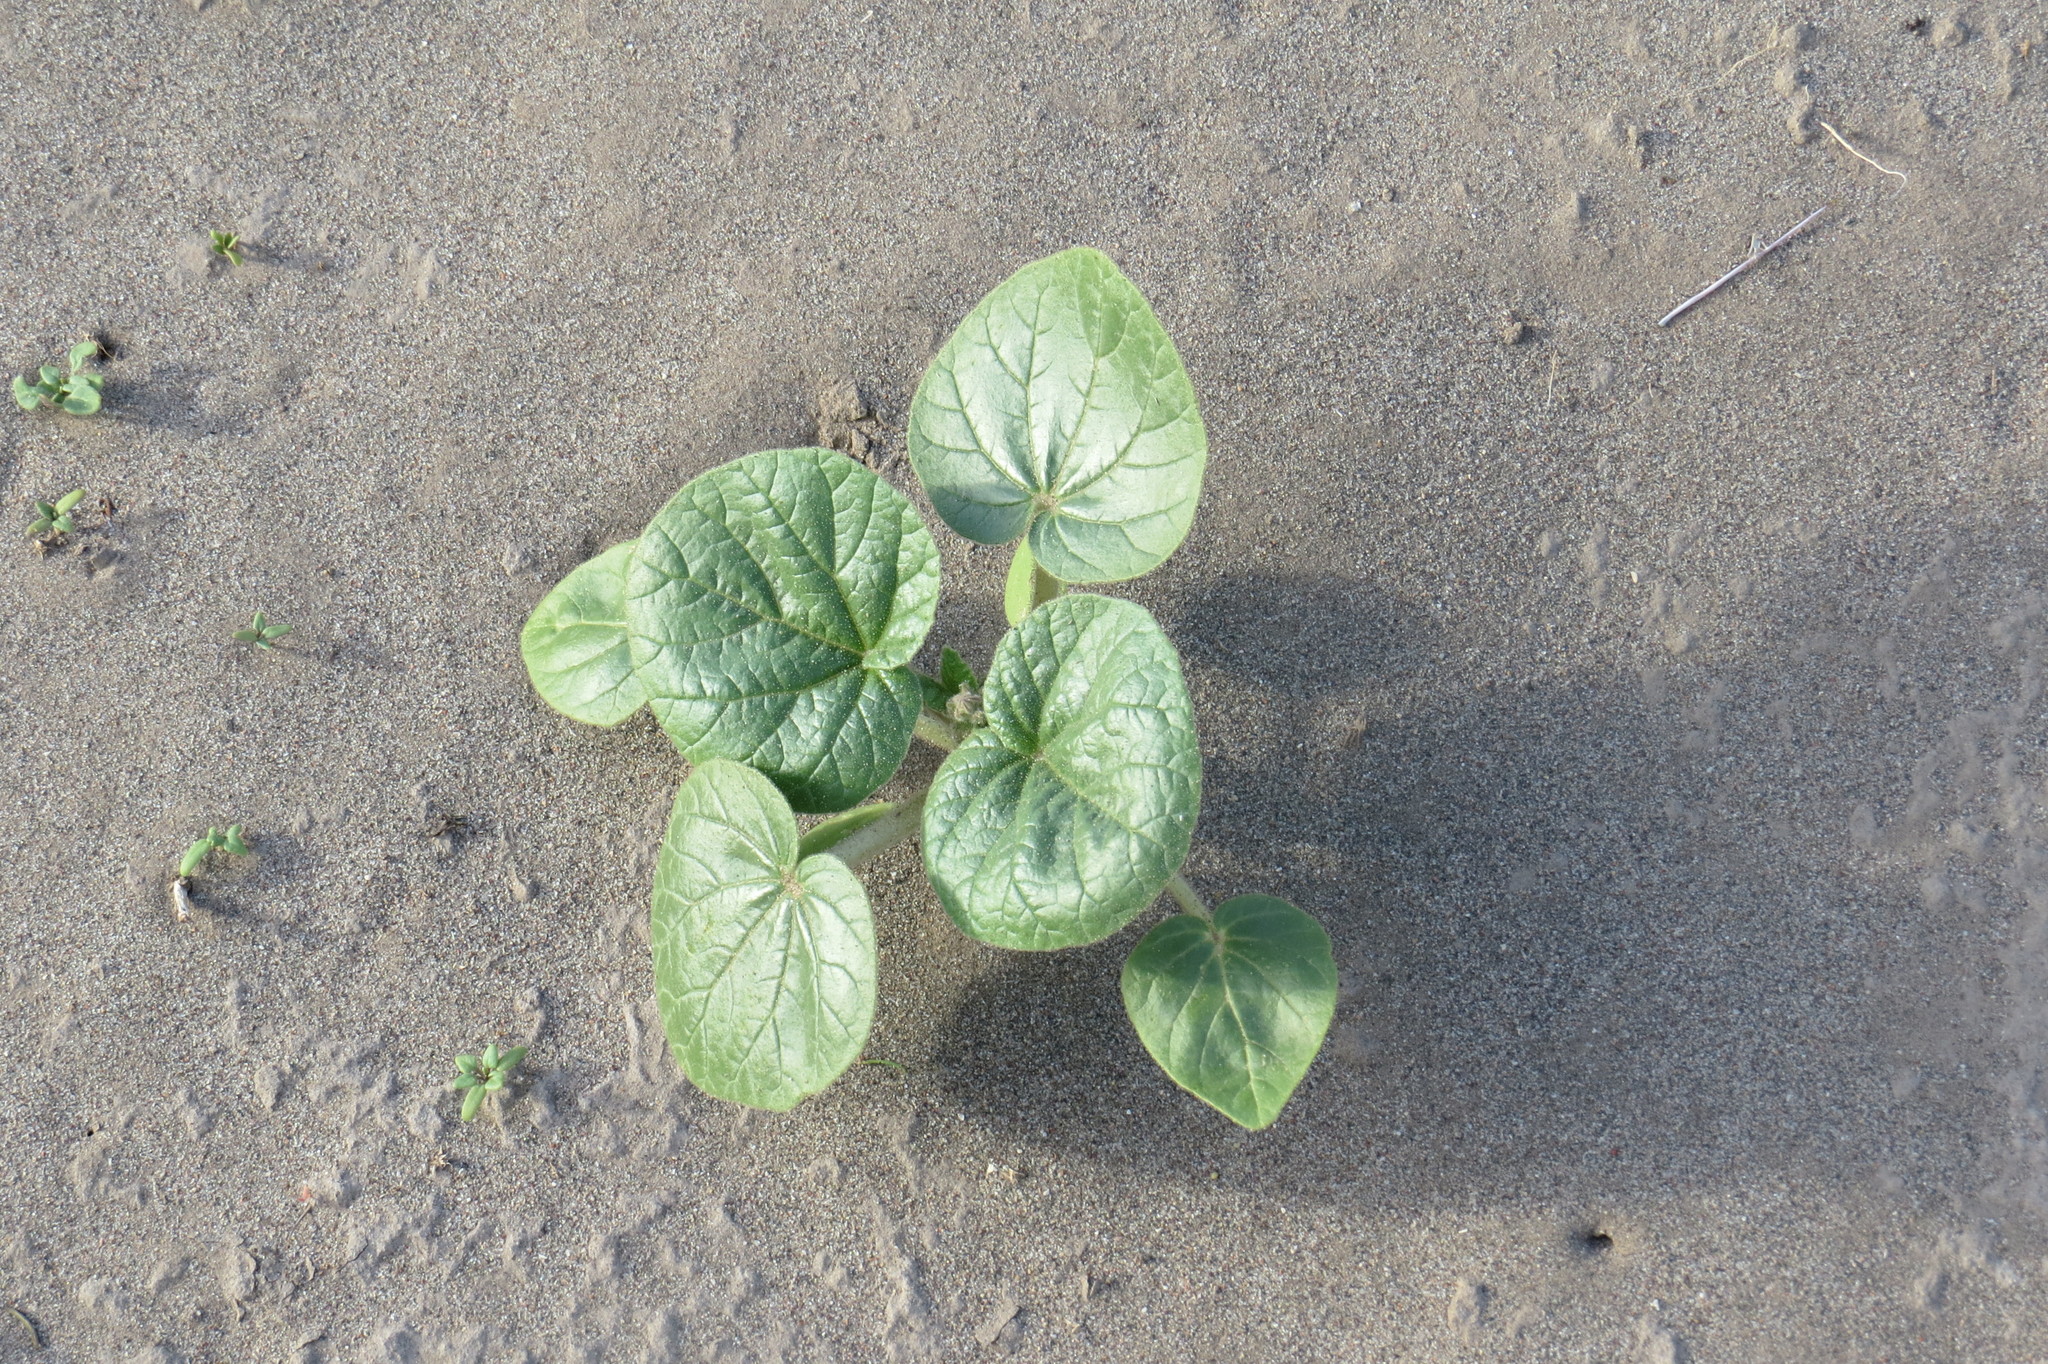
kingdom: Plantae
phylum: Tracheophyta
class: Magnoliopsida
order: Lamiales
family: Martyniaceae
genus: Ibicella
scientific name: Ibicella
